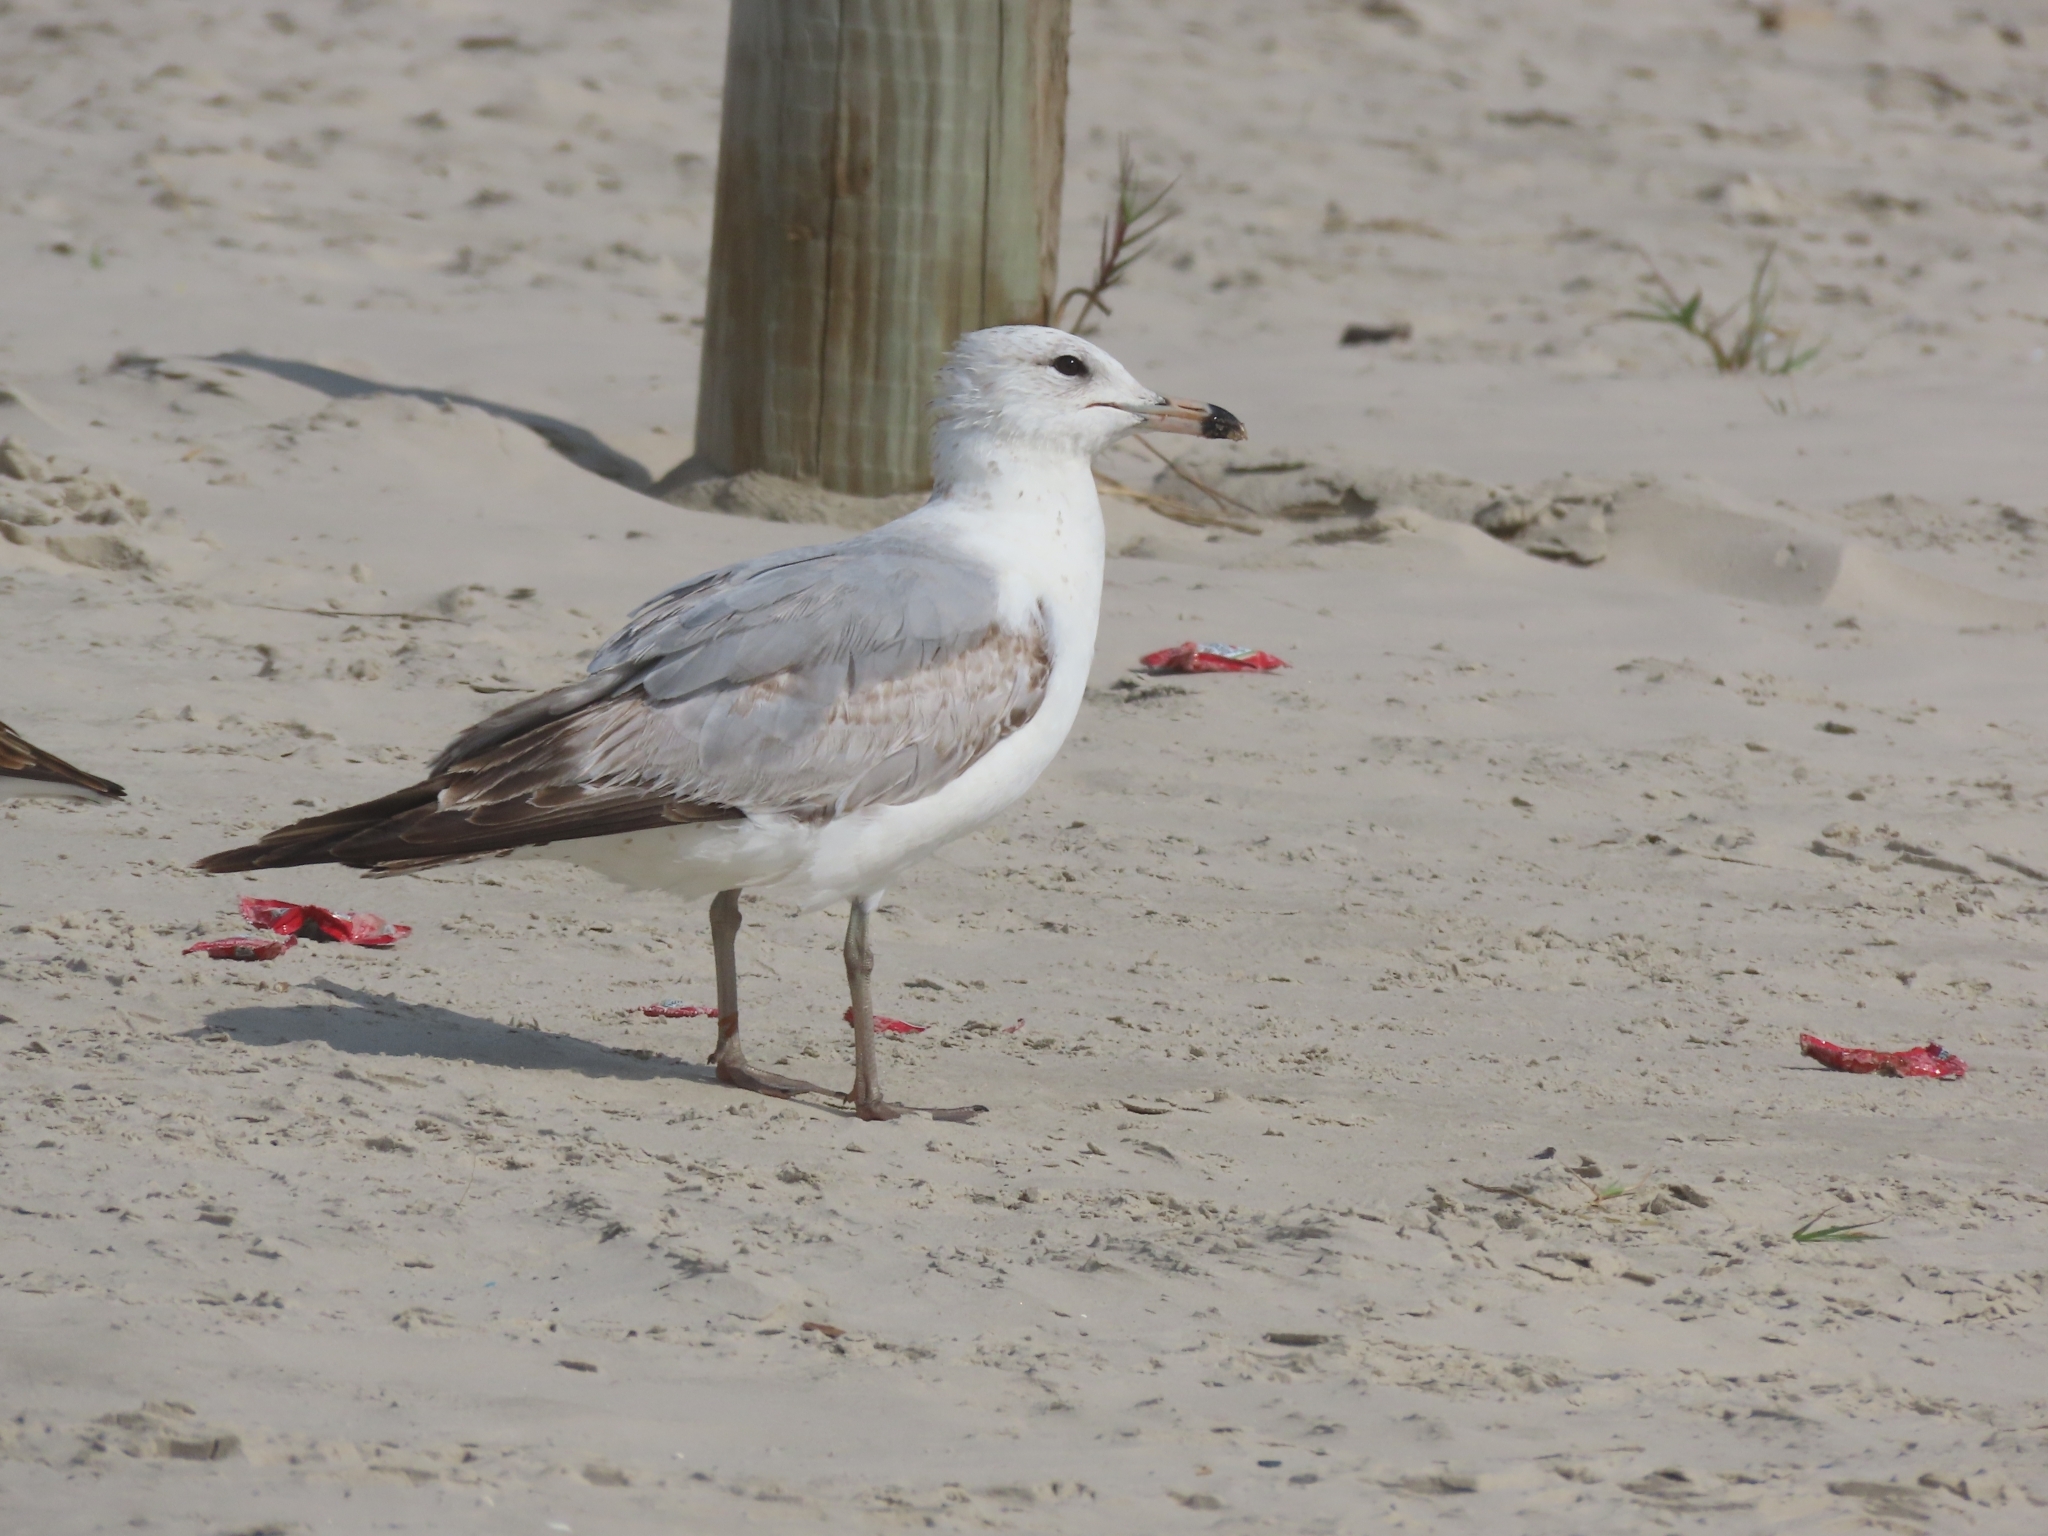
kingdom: Animalia
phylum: Chordata
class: Aves
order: Charadriiformes
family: Laridae
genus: Larus
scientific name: Larus delawarensis
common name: Ring-billed gull
